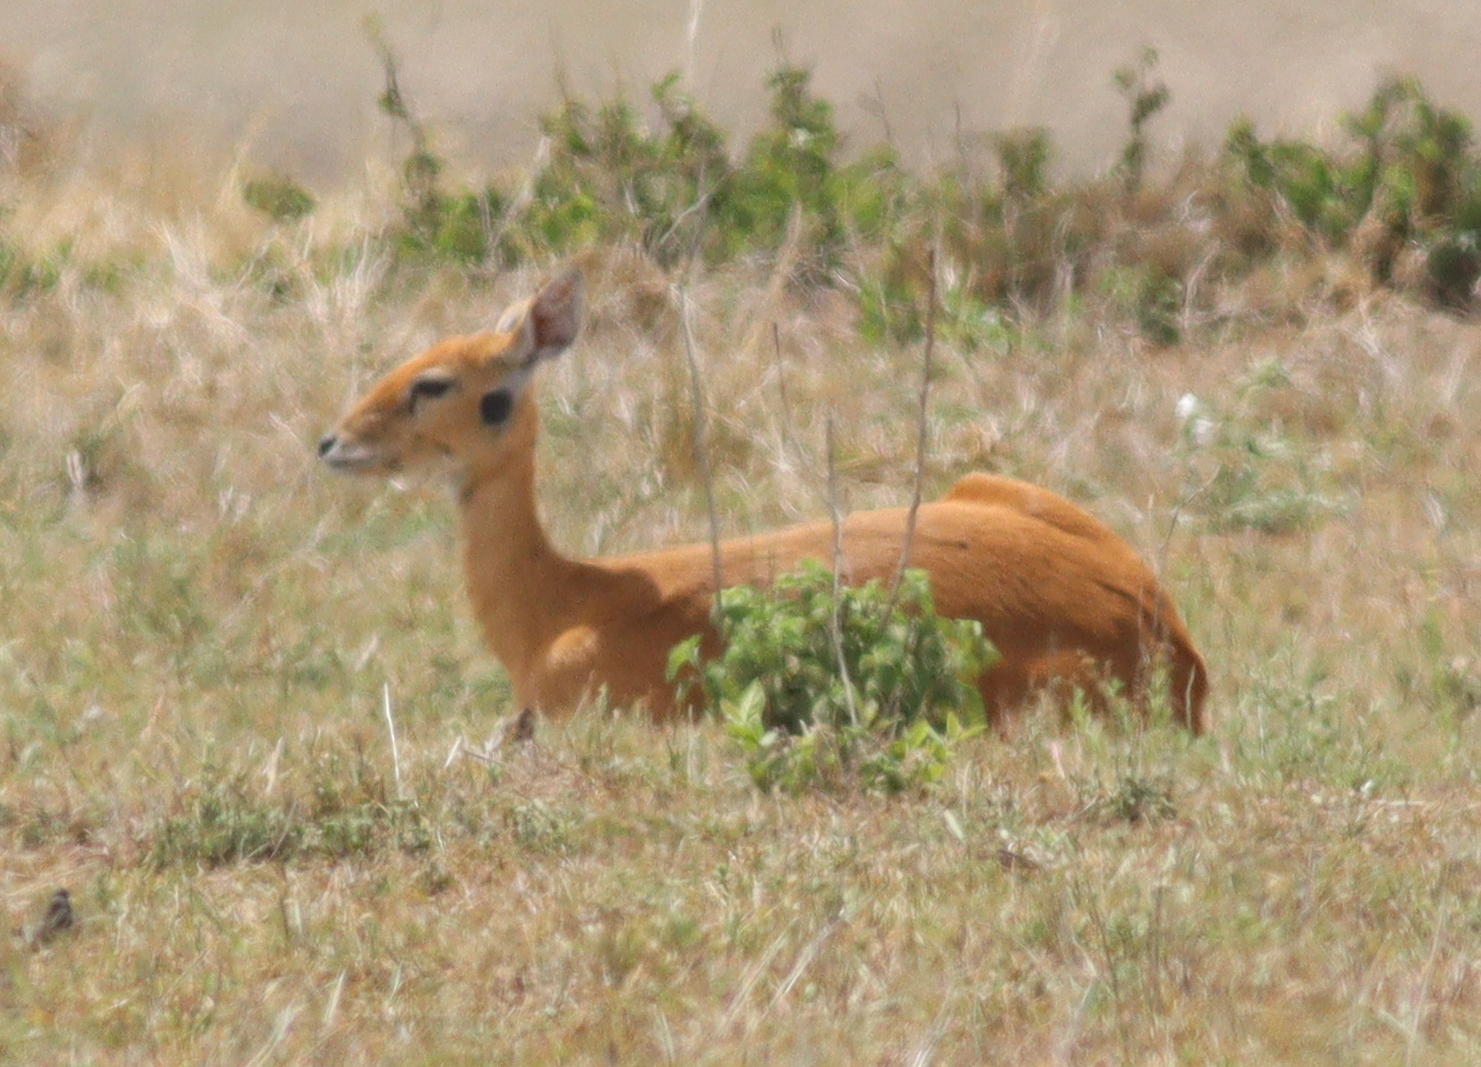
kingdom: Animalia
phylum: Chordata
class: Mammalia
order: Artiodactyla
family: Bovidae
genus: Ourebia
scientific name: Ourebia ourebi
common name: Oribi
